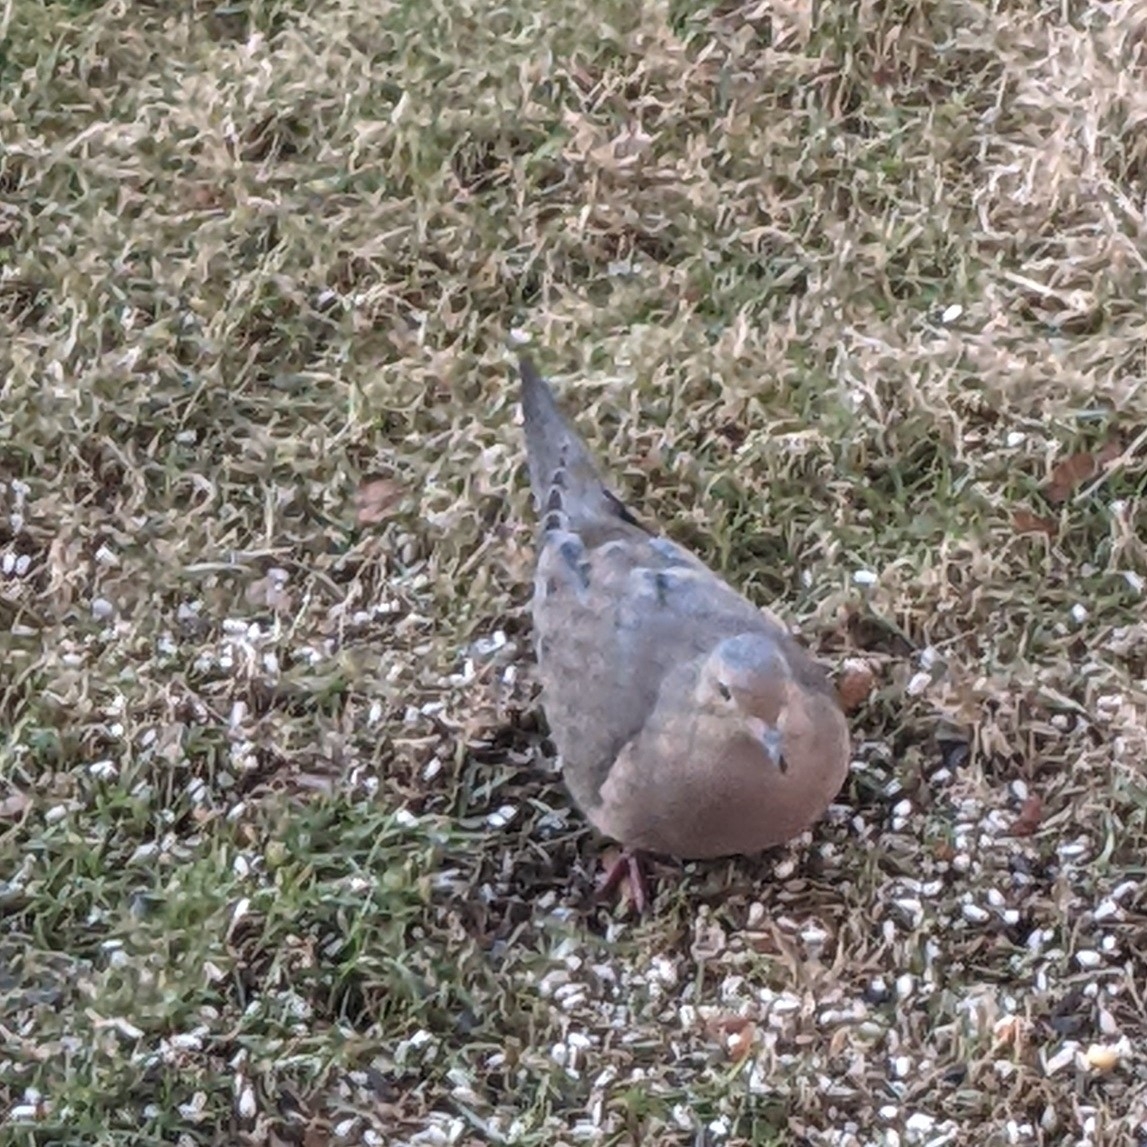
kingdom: Animalia
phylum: Chordata
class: Aves
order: Columbiformes
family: Columbidae
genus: Zenaida
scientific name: Zenaida macroura
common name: Mourning dove
